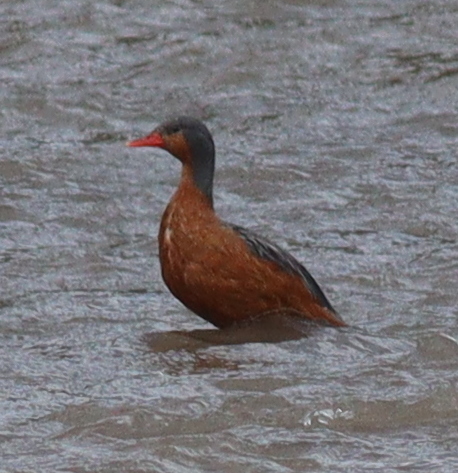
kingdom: Animalia
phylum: Chordata
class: Aves
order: Anseriformes
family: Anatidae
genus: Merganetta
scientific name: Merganetta armata
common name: Torrent duck
